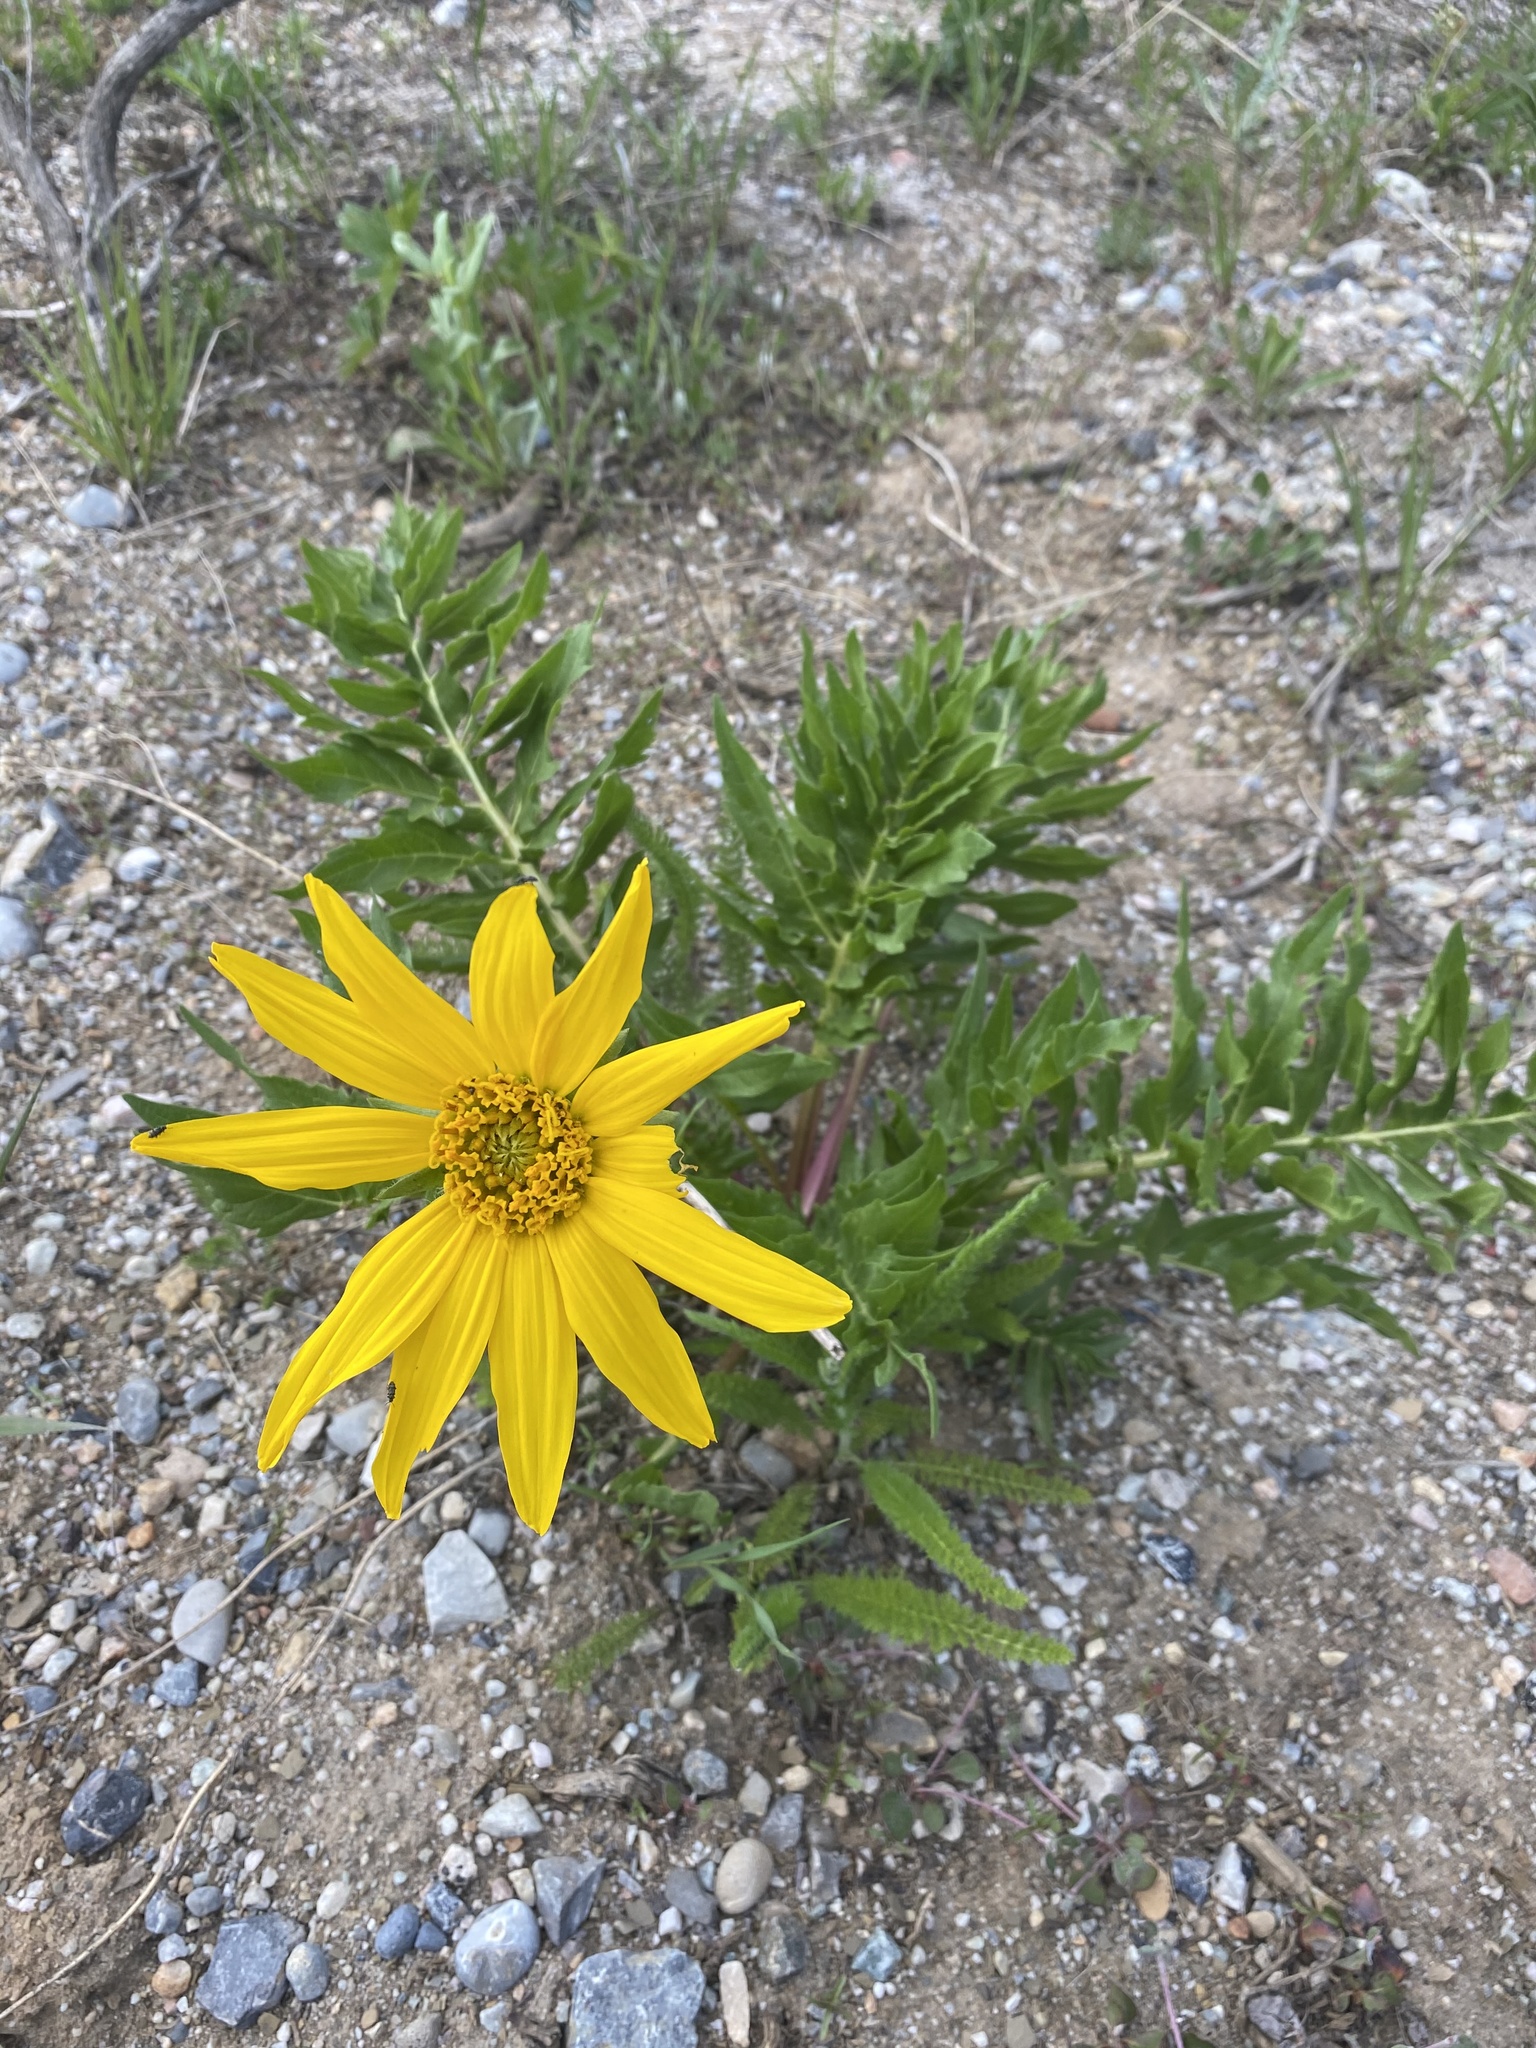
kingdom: Plantae
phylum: Tracheophyta
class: Magnoliopsida
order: Asterales
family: Asteraceae
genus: Balsamorhiza
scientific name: Balsamorhiza macrophylla
